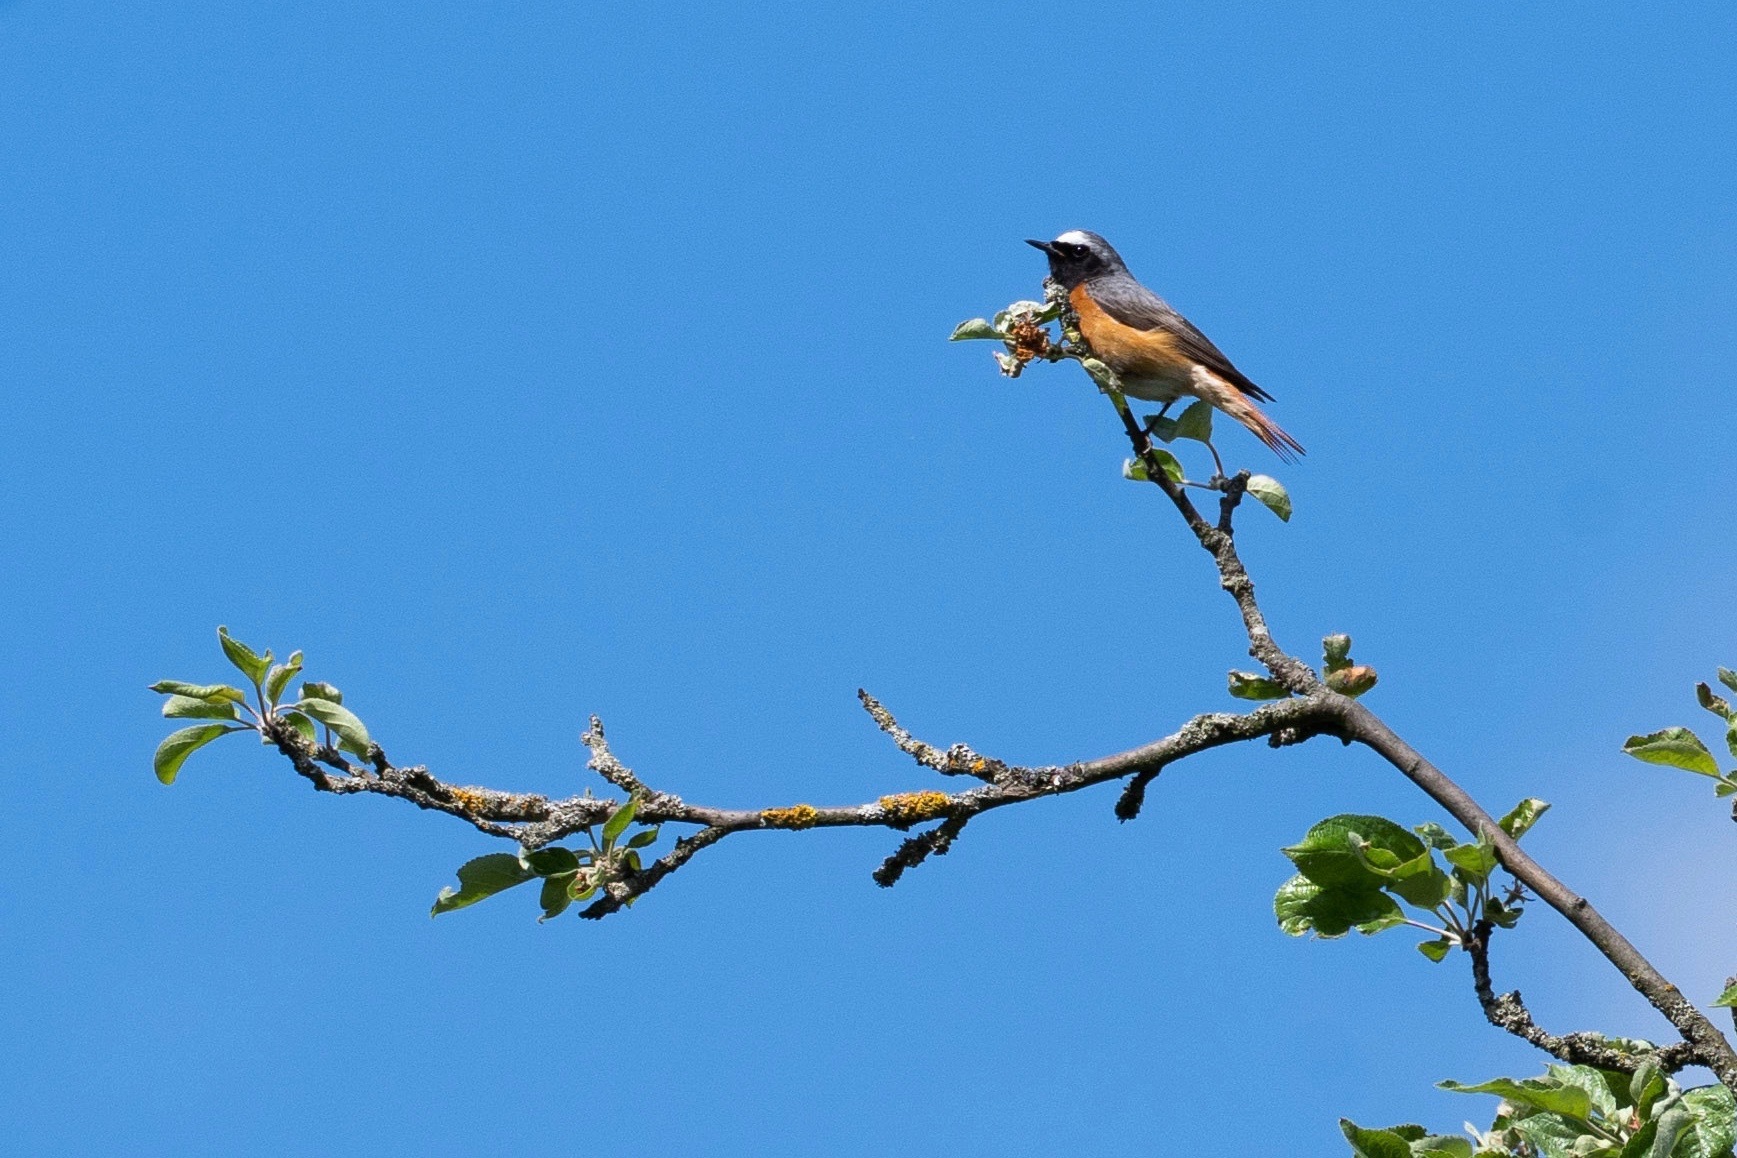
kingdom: Animalia
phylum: Chordata
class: Aves
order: Passeriformes
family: Muscicapidae
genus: Phoenicurus
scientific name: Phoenicurus phoenicurus
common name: Common redstart
